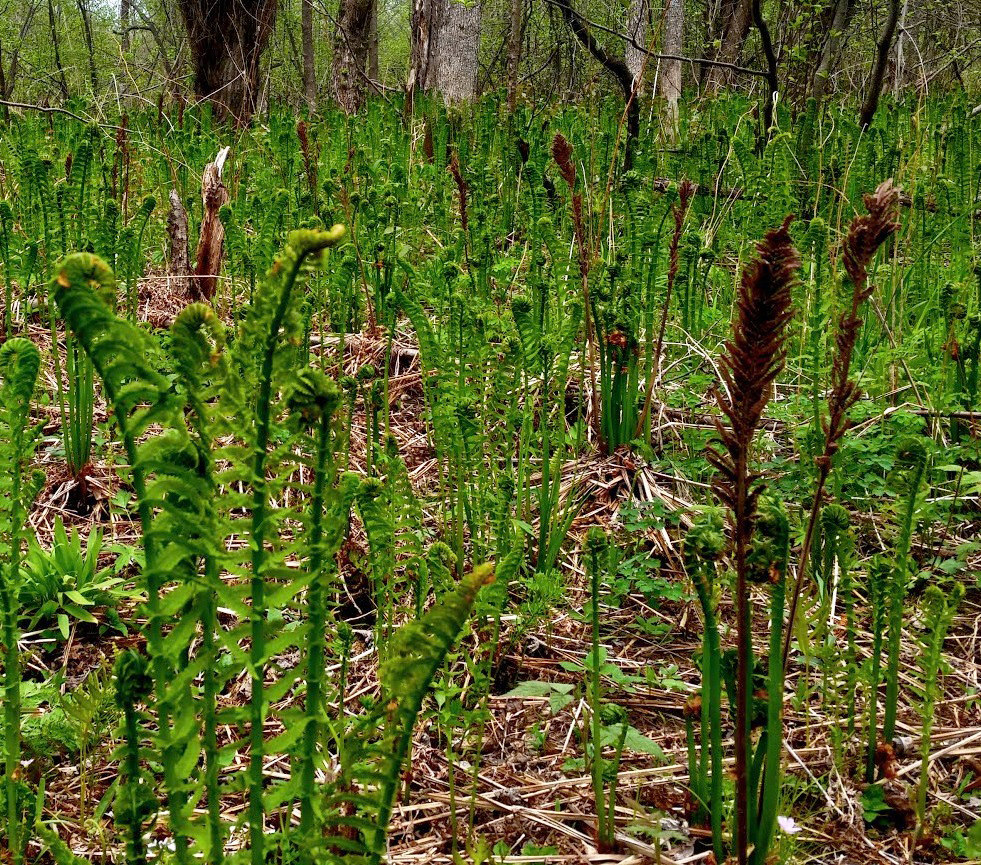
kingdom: Plantae
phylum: Tracheophyta
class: Polypodiopsida
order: Polypodiales
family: Onocleaceae
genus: Matteuccia
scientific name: Matteuccia struthiopteris
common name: Ostrich fern
